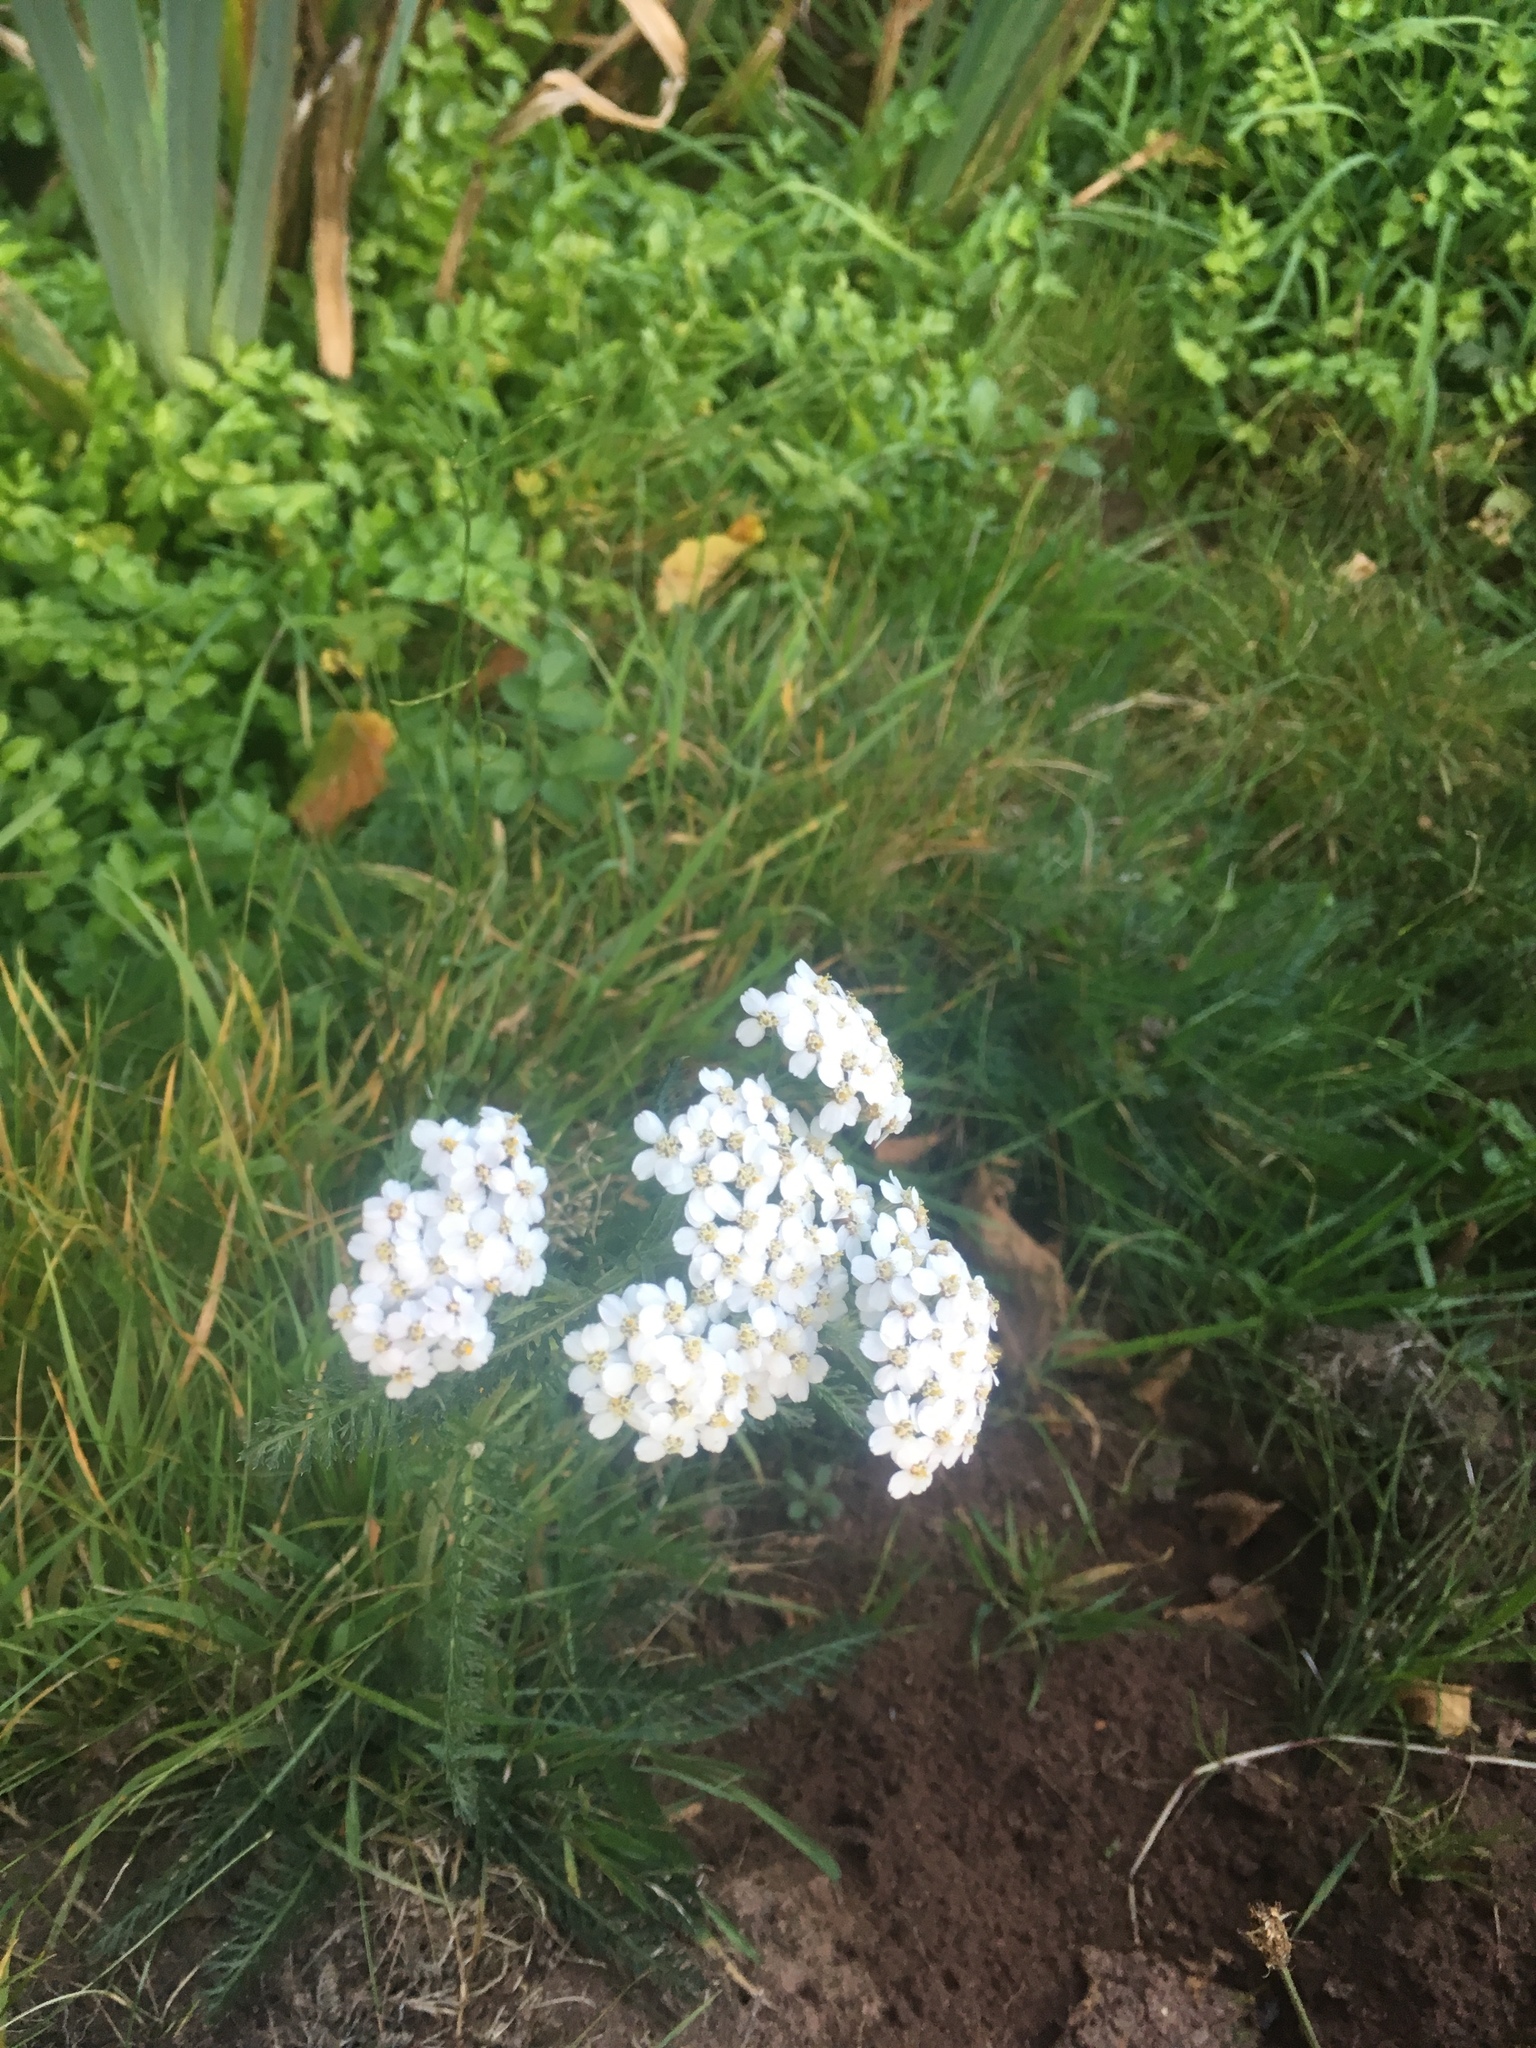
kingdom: Plantae
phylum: Tracheophyta
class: Magnoliopsida
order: Asterales
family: Asteraceae
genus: Achillea
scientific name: Achillea millefolium
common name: Yarrow
